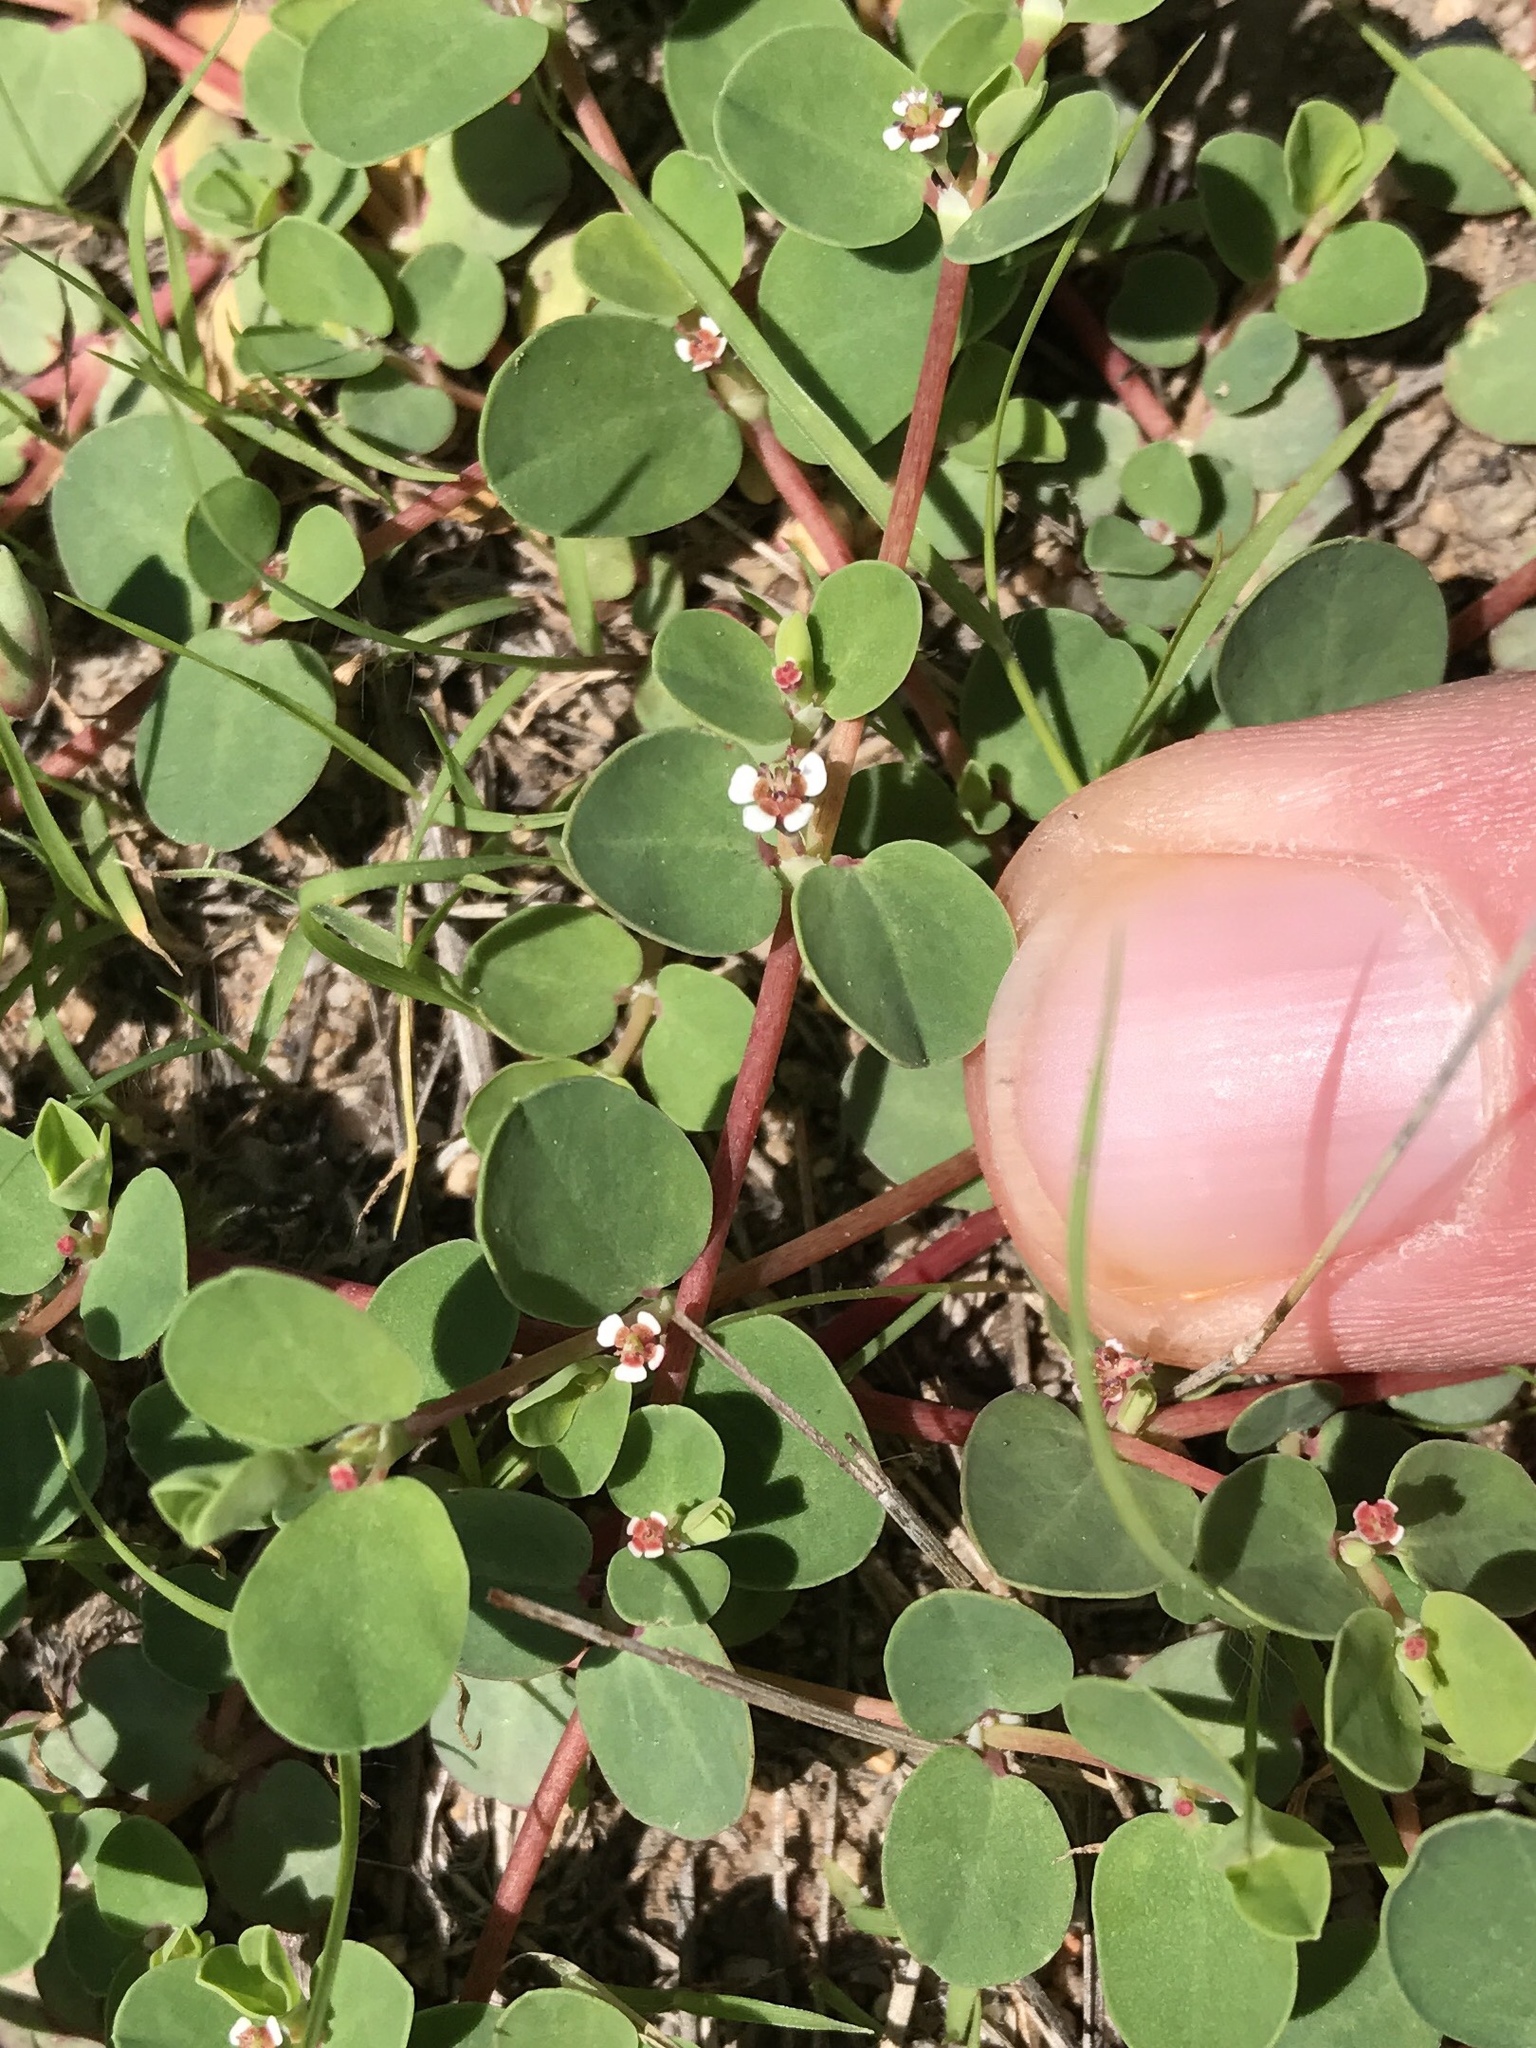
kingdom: Plantae
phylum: Tracheophyta
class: Magnoliopsida
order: Malpighiales
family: Euphorbiaceae
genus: Euphorbia
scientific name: Euphorbia albomarginata
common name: Whitemargin sandmat
